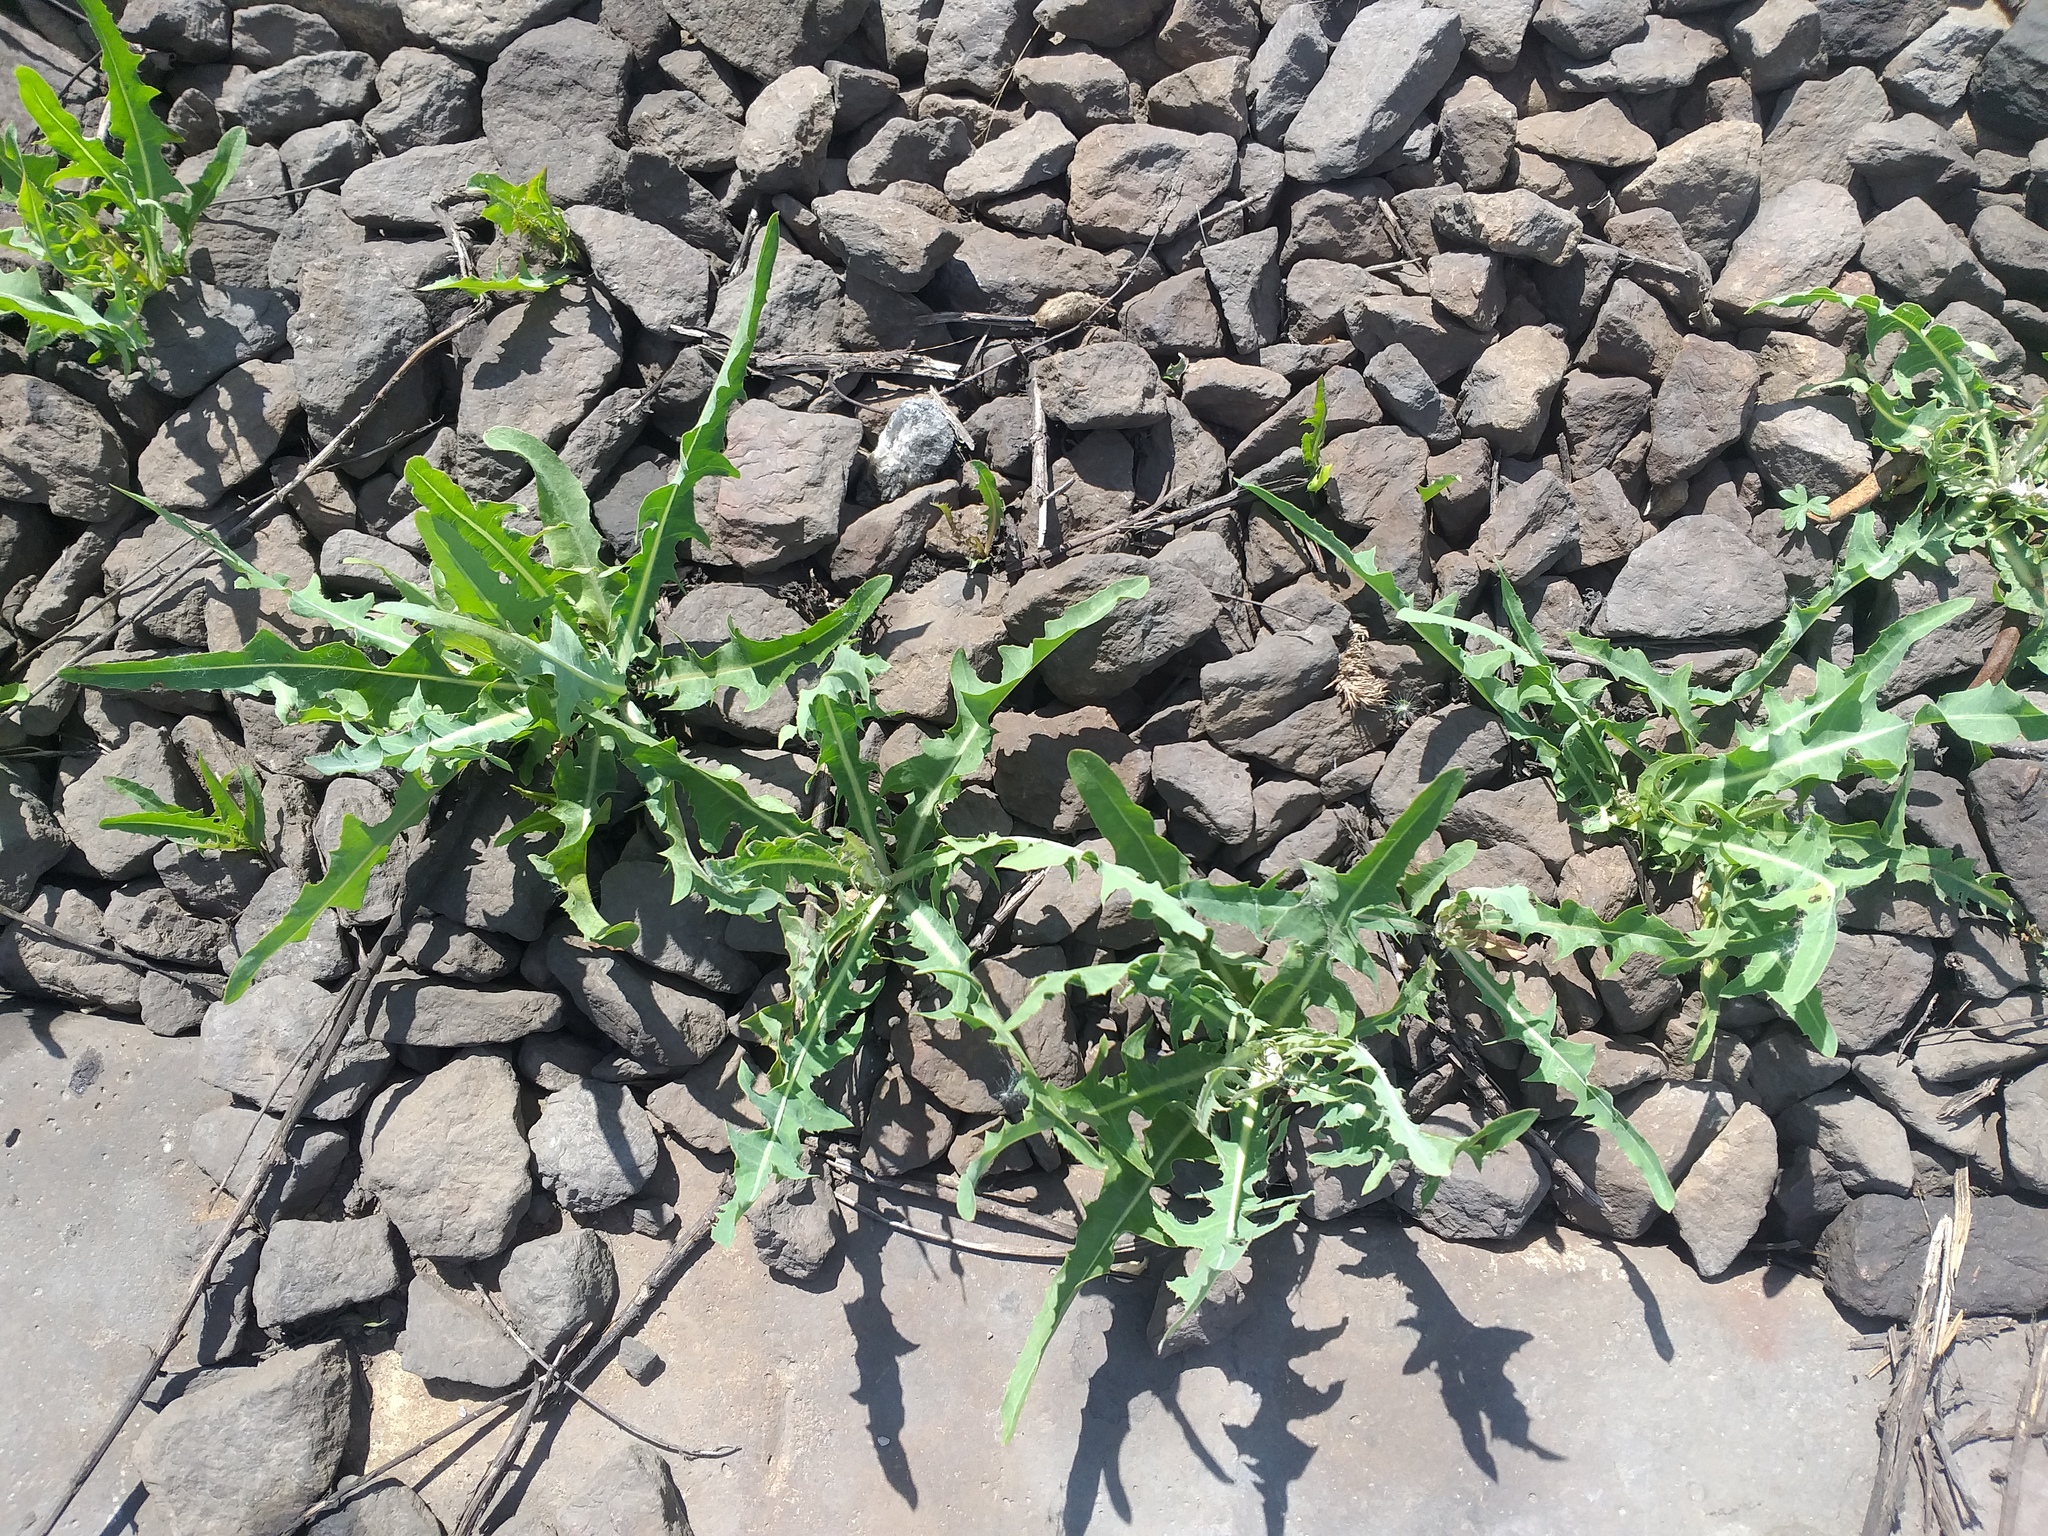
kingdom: Plantae
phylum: Tracheophyta
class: Magnoliopsida
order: Asterales
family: Asteraceae
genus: Lactuca
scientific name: Lactuca tatarica
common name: Blue lettuce
